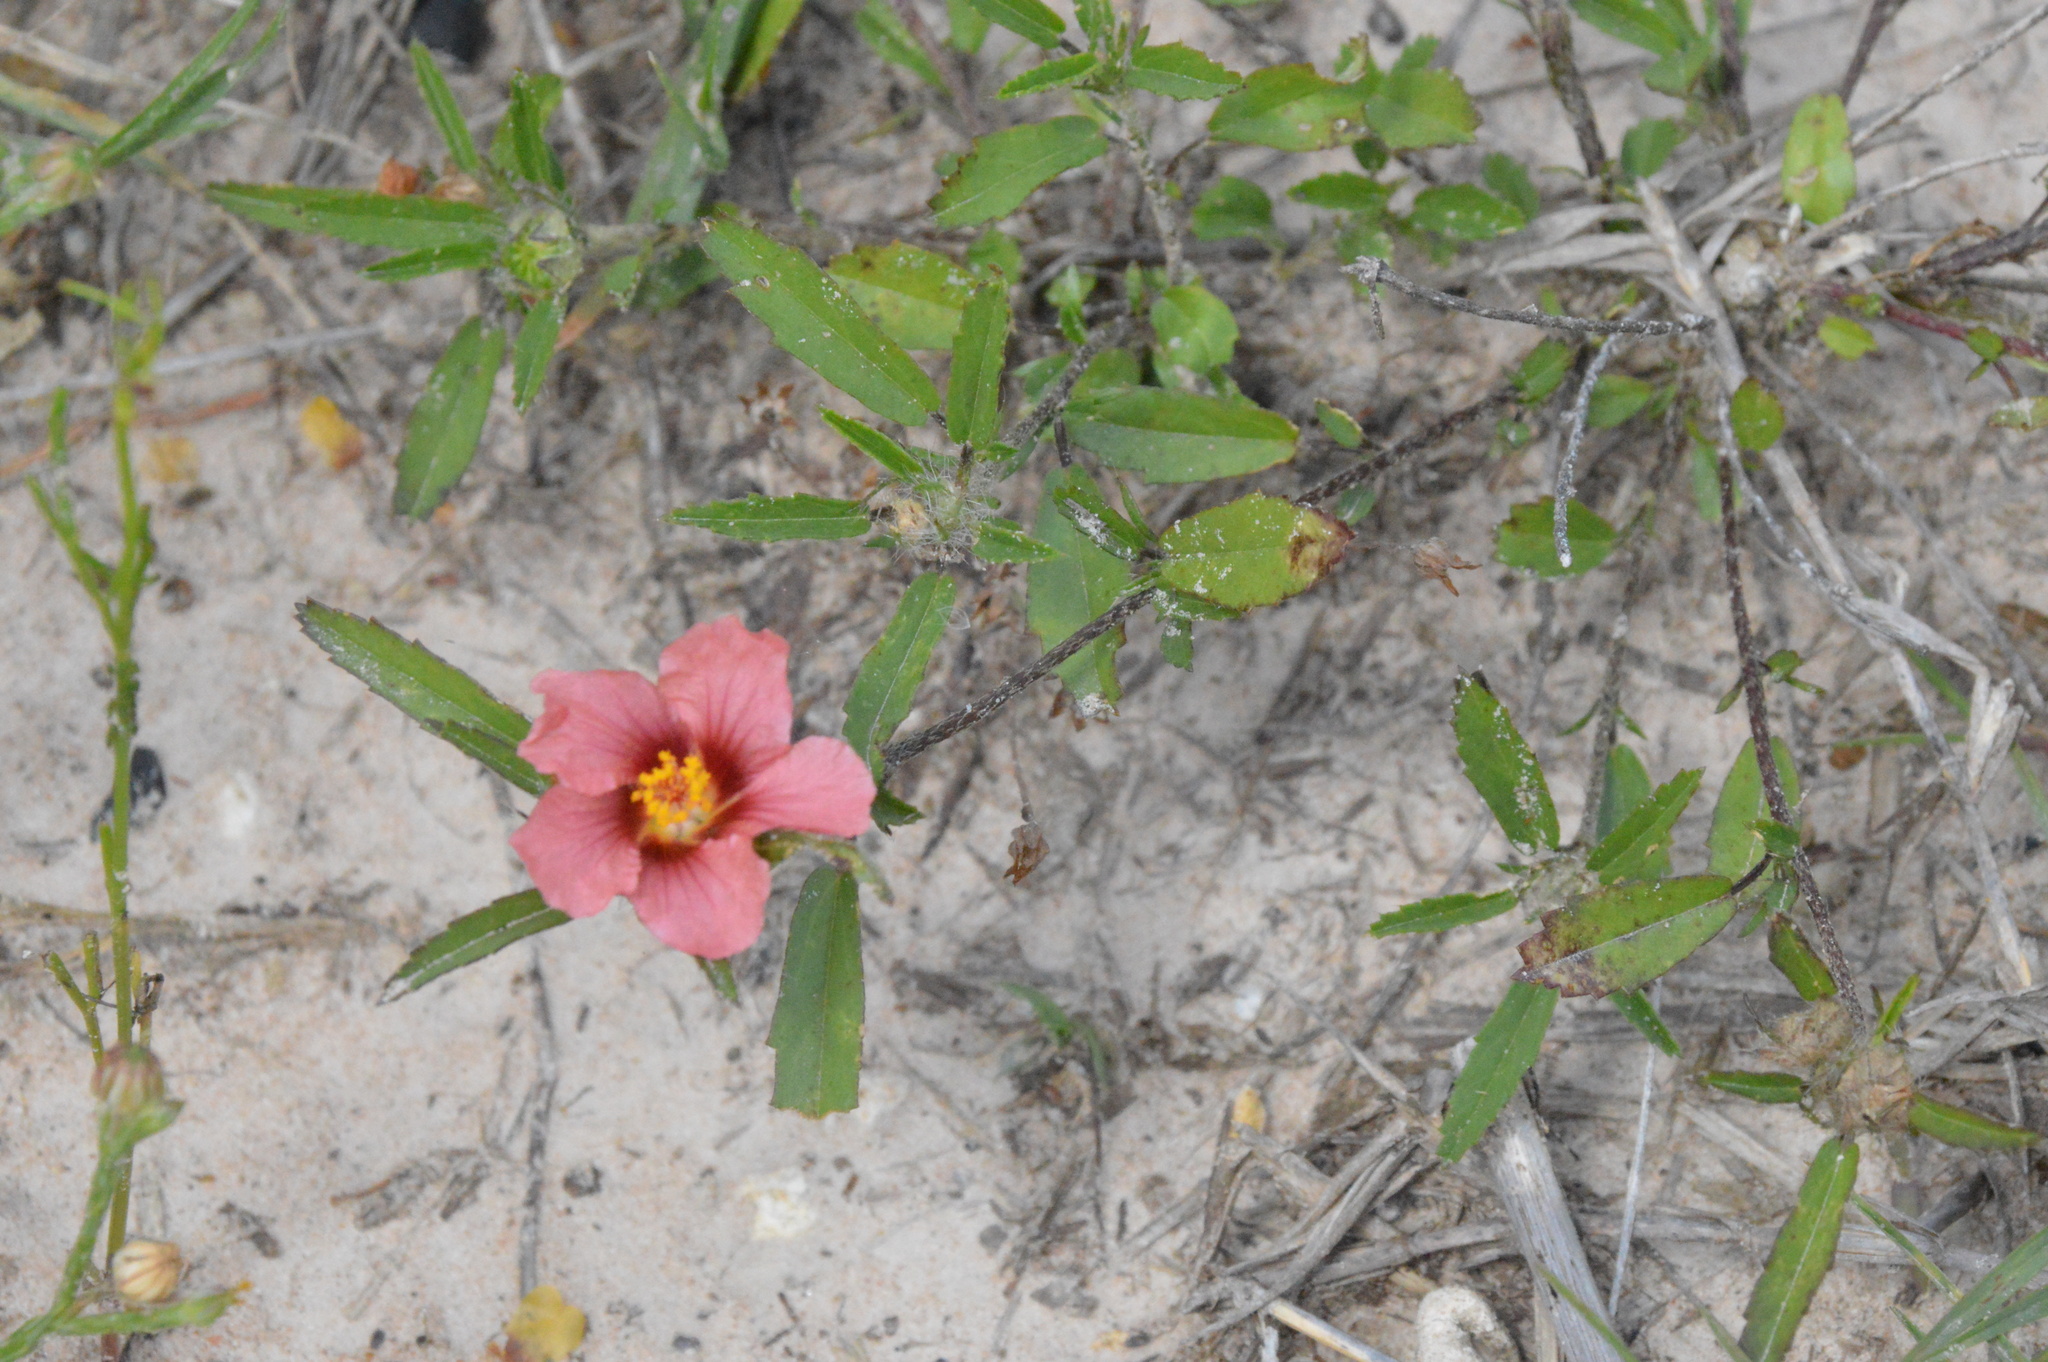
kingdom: Plantae
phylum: Tracheophyta
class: Magnoliopsida
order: Malvales
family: Malvaceae
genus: Sida
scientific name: Sida ciliaris
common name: Bracted fanpetals
